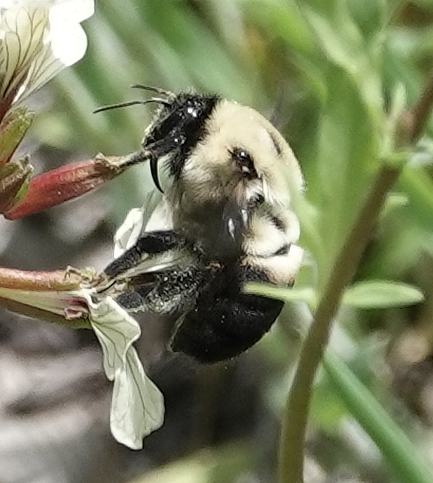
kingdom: Animalia
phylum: Arthropoda
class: Insecta
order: Hymenoptera
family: Apidae
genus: Bombus
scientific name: Bombus griseocollis
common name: Brown-belted bumble bee
